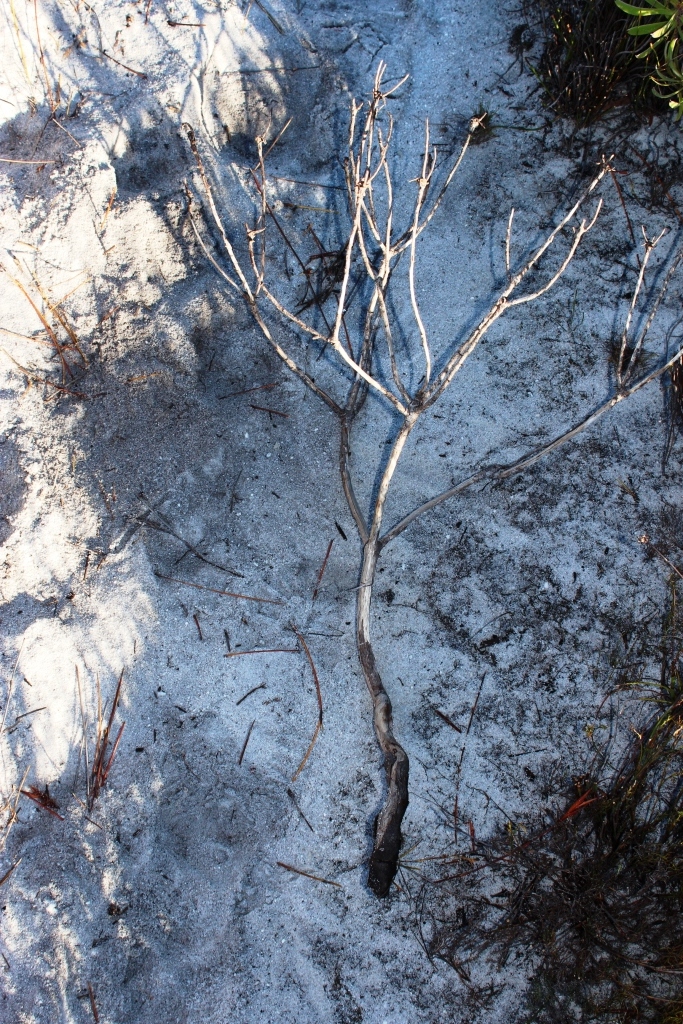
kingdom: Plantae
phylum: Tracheophyta
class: Magnoliopsida
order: Proteales
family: Proteaceae
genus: Leucadendron
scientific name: Leucadendron laureolum
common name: Golden sunshinebush
